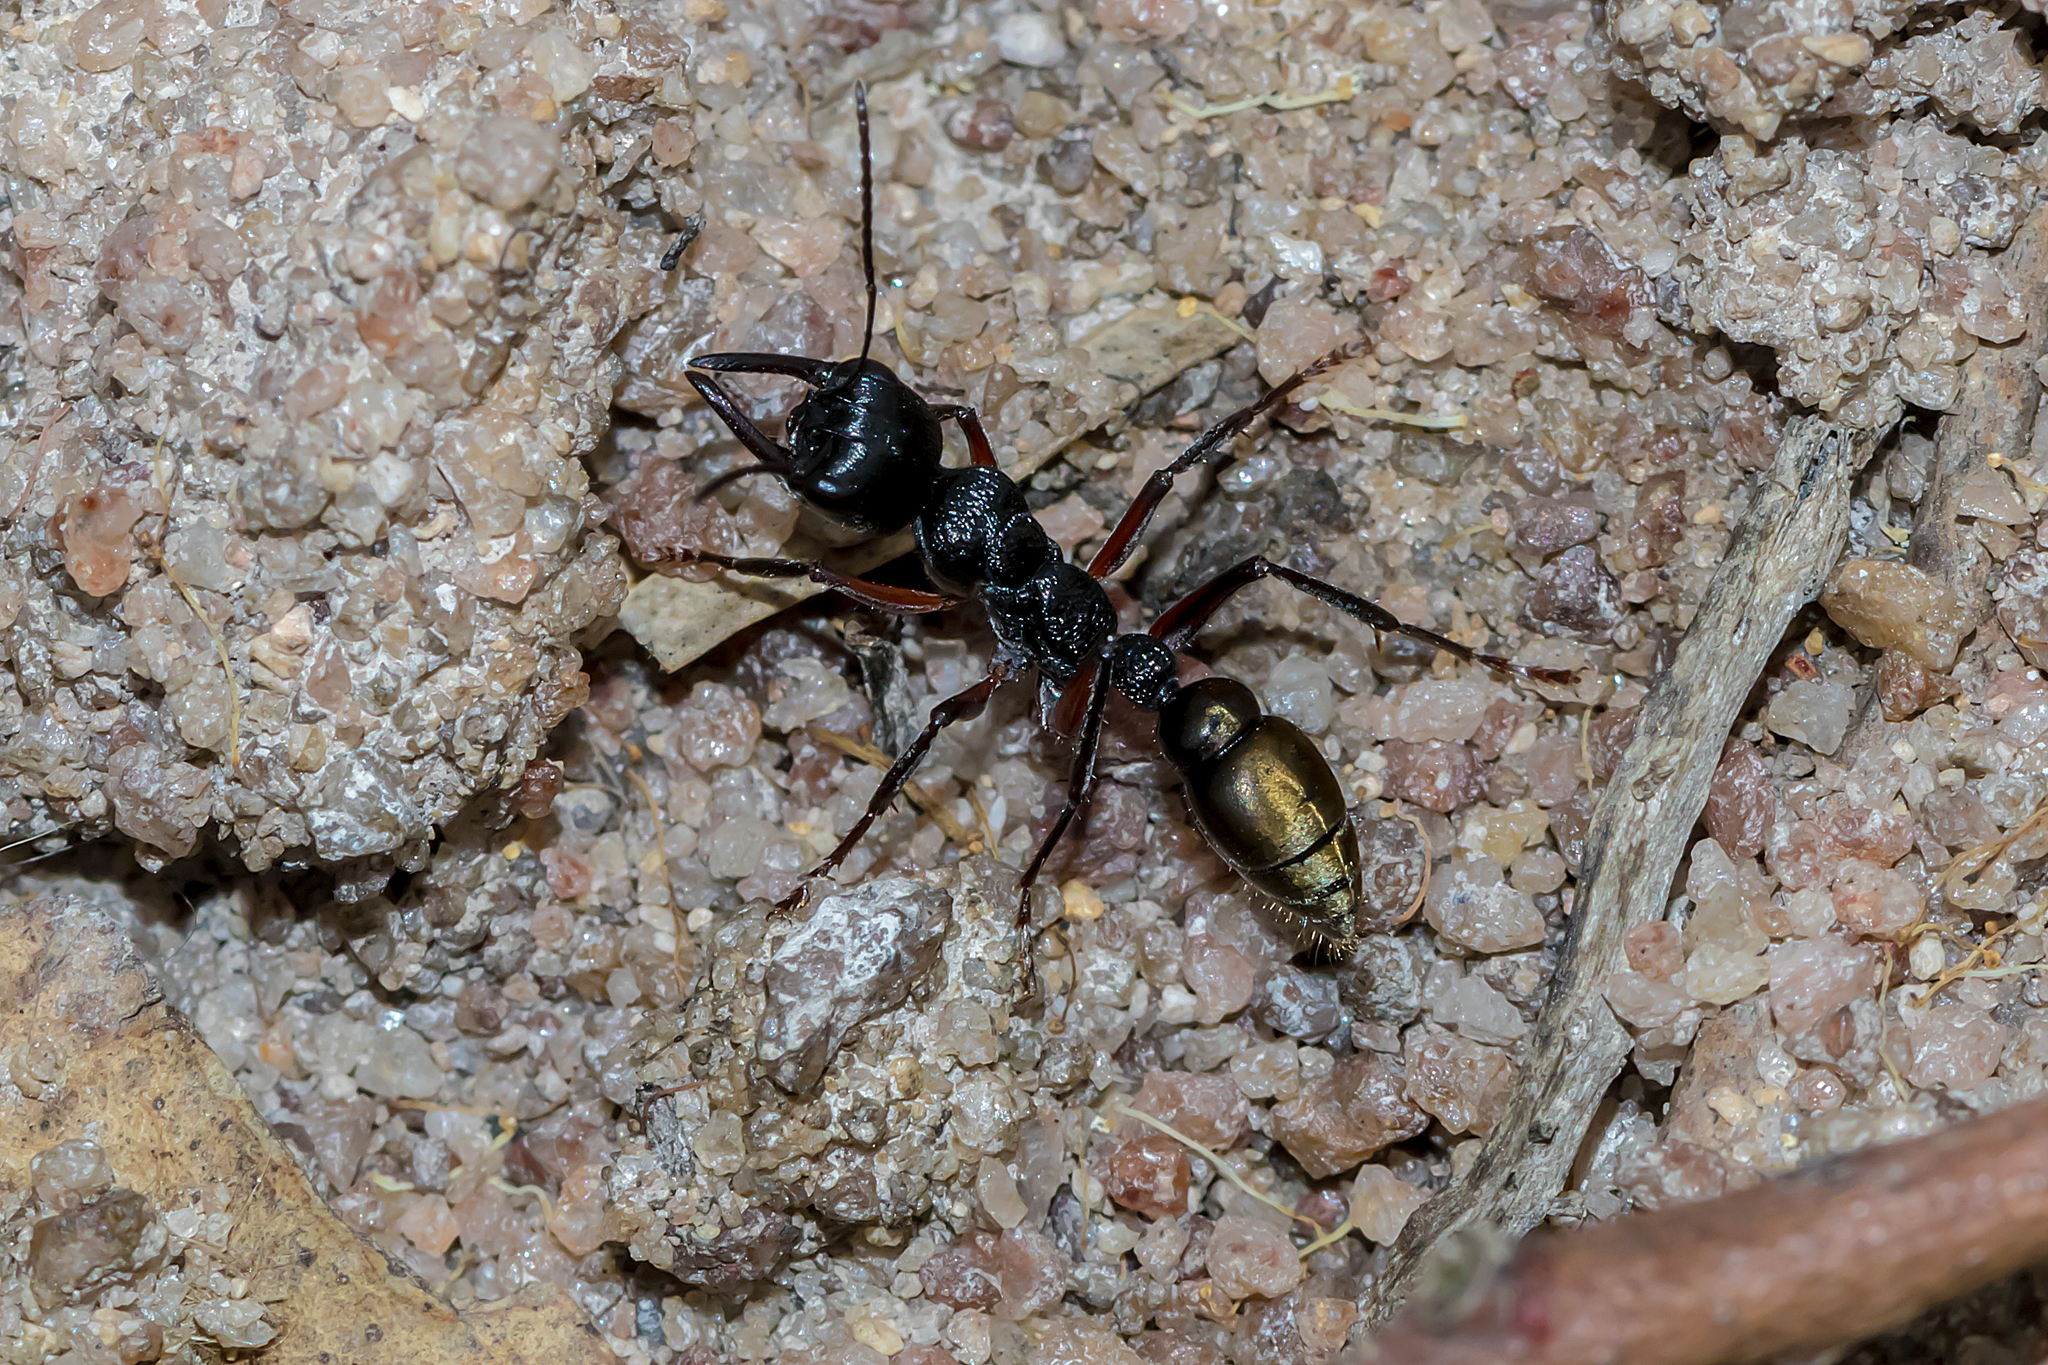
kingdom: Animalia
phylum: Arthropoda
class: Insecta
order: Hymenoptera
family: Formicidae
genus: Myrmecia
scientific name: Myrmecia fulvipes
